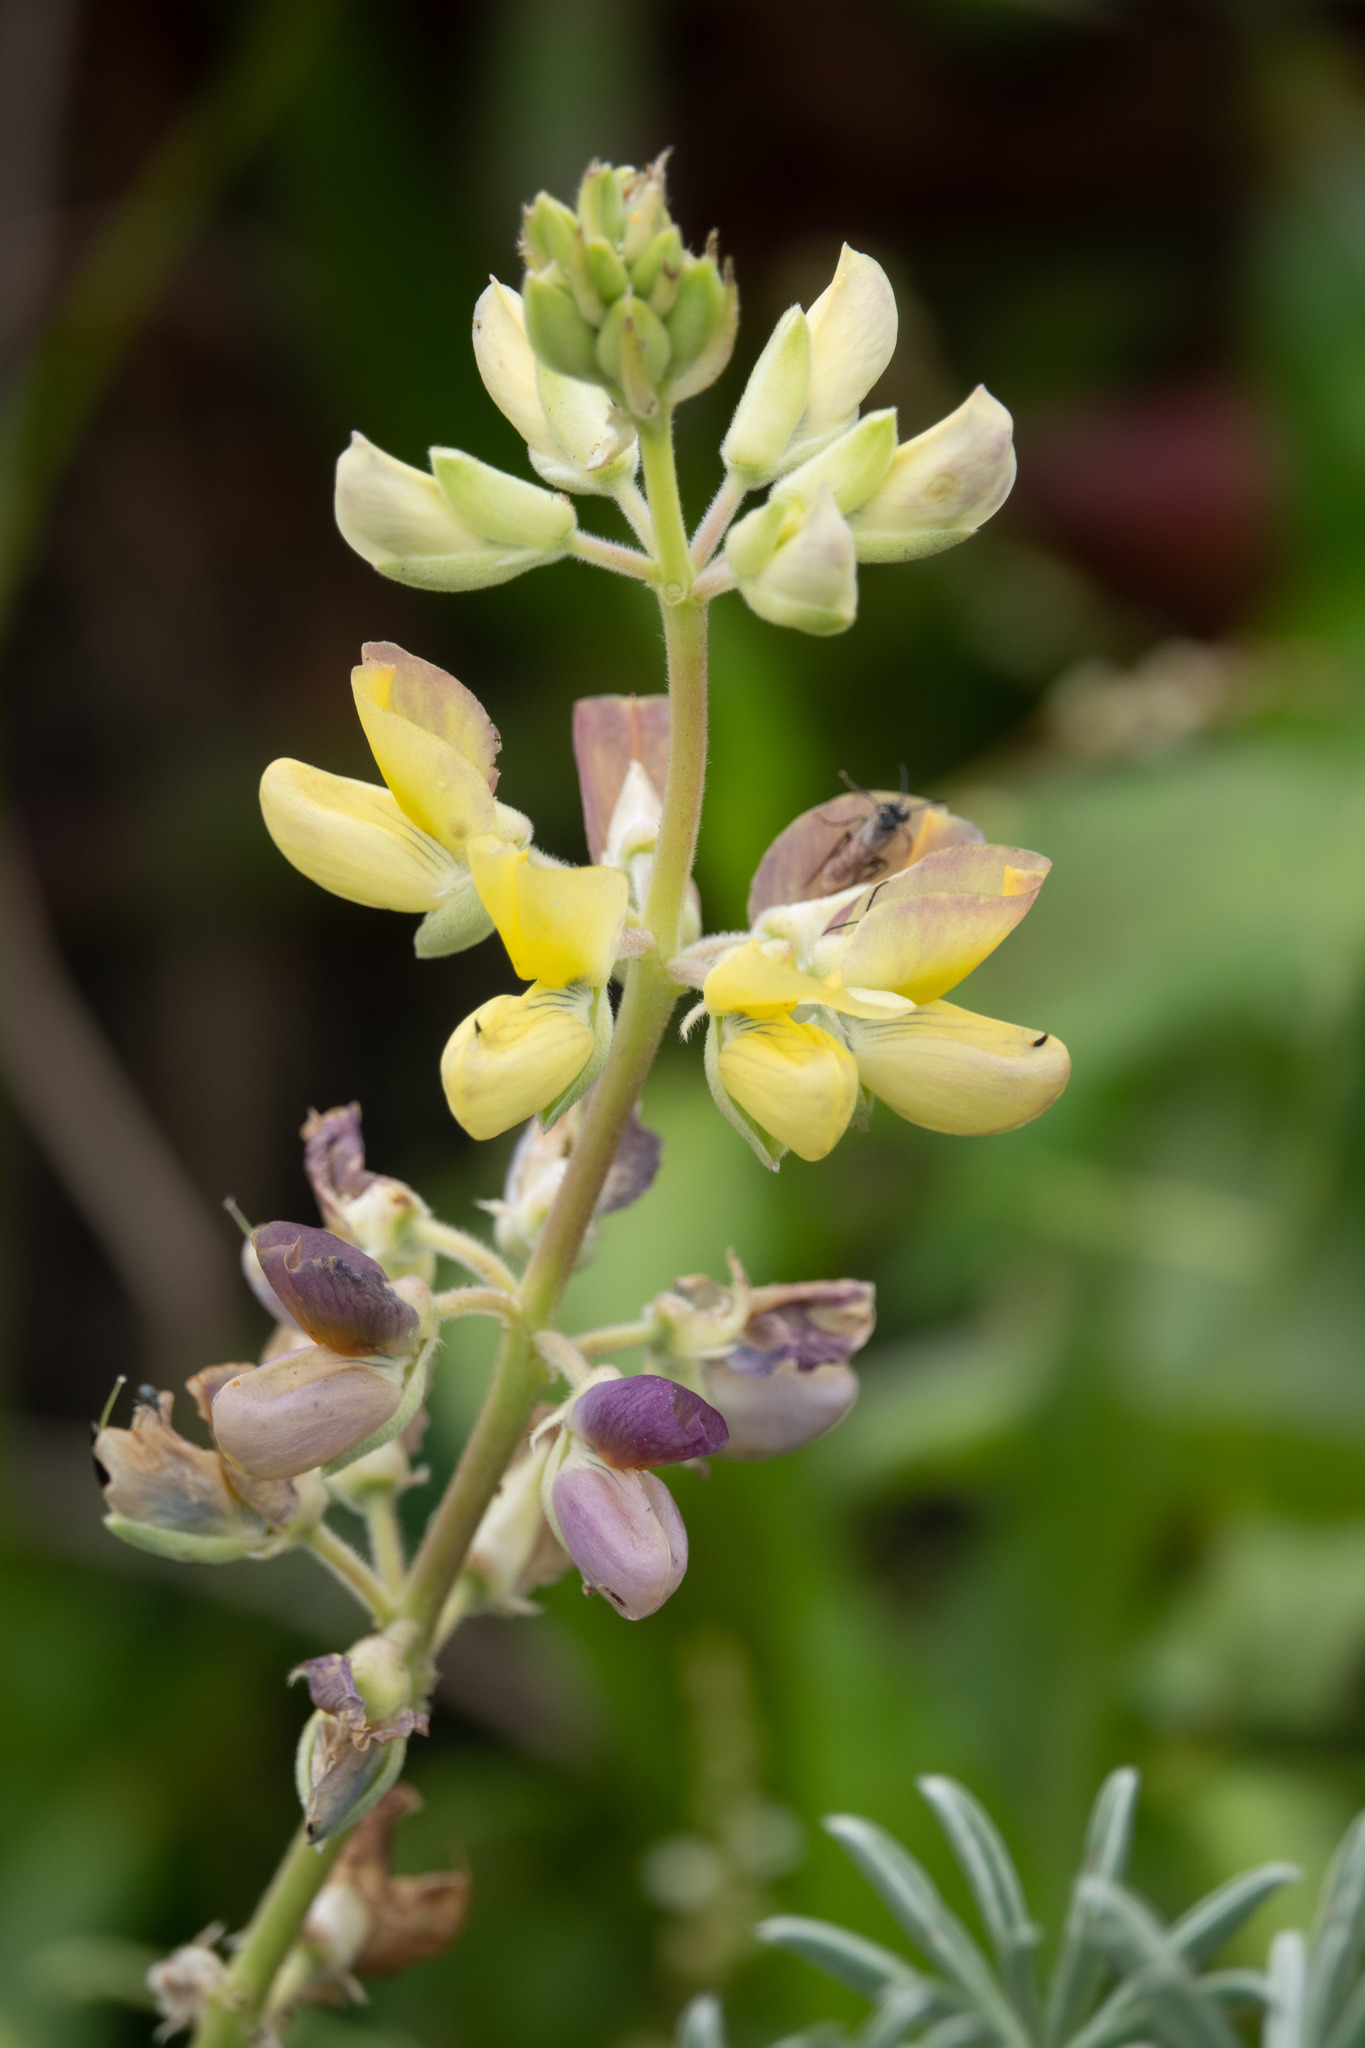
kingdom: Plantae
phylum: Tracheophyta
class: Magnoliopsida
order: Fabales
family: Fabaceae
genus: Lupinus
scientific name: Lupinus arboreus
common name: Yellow bush lupine
